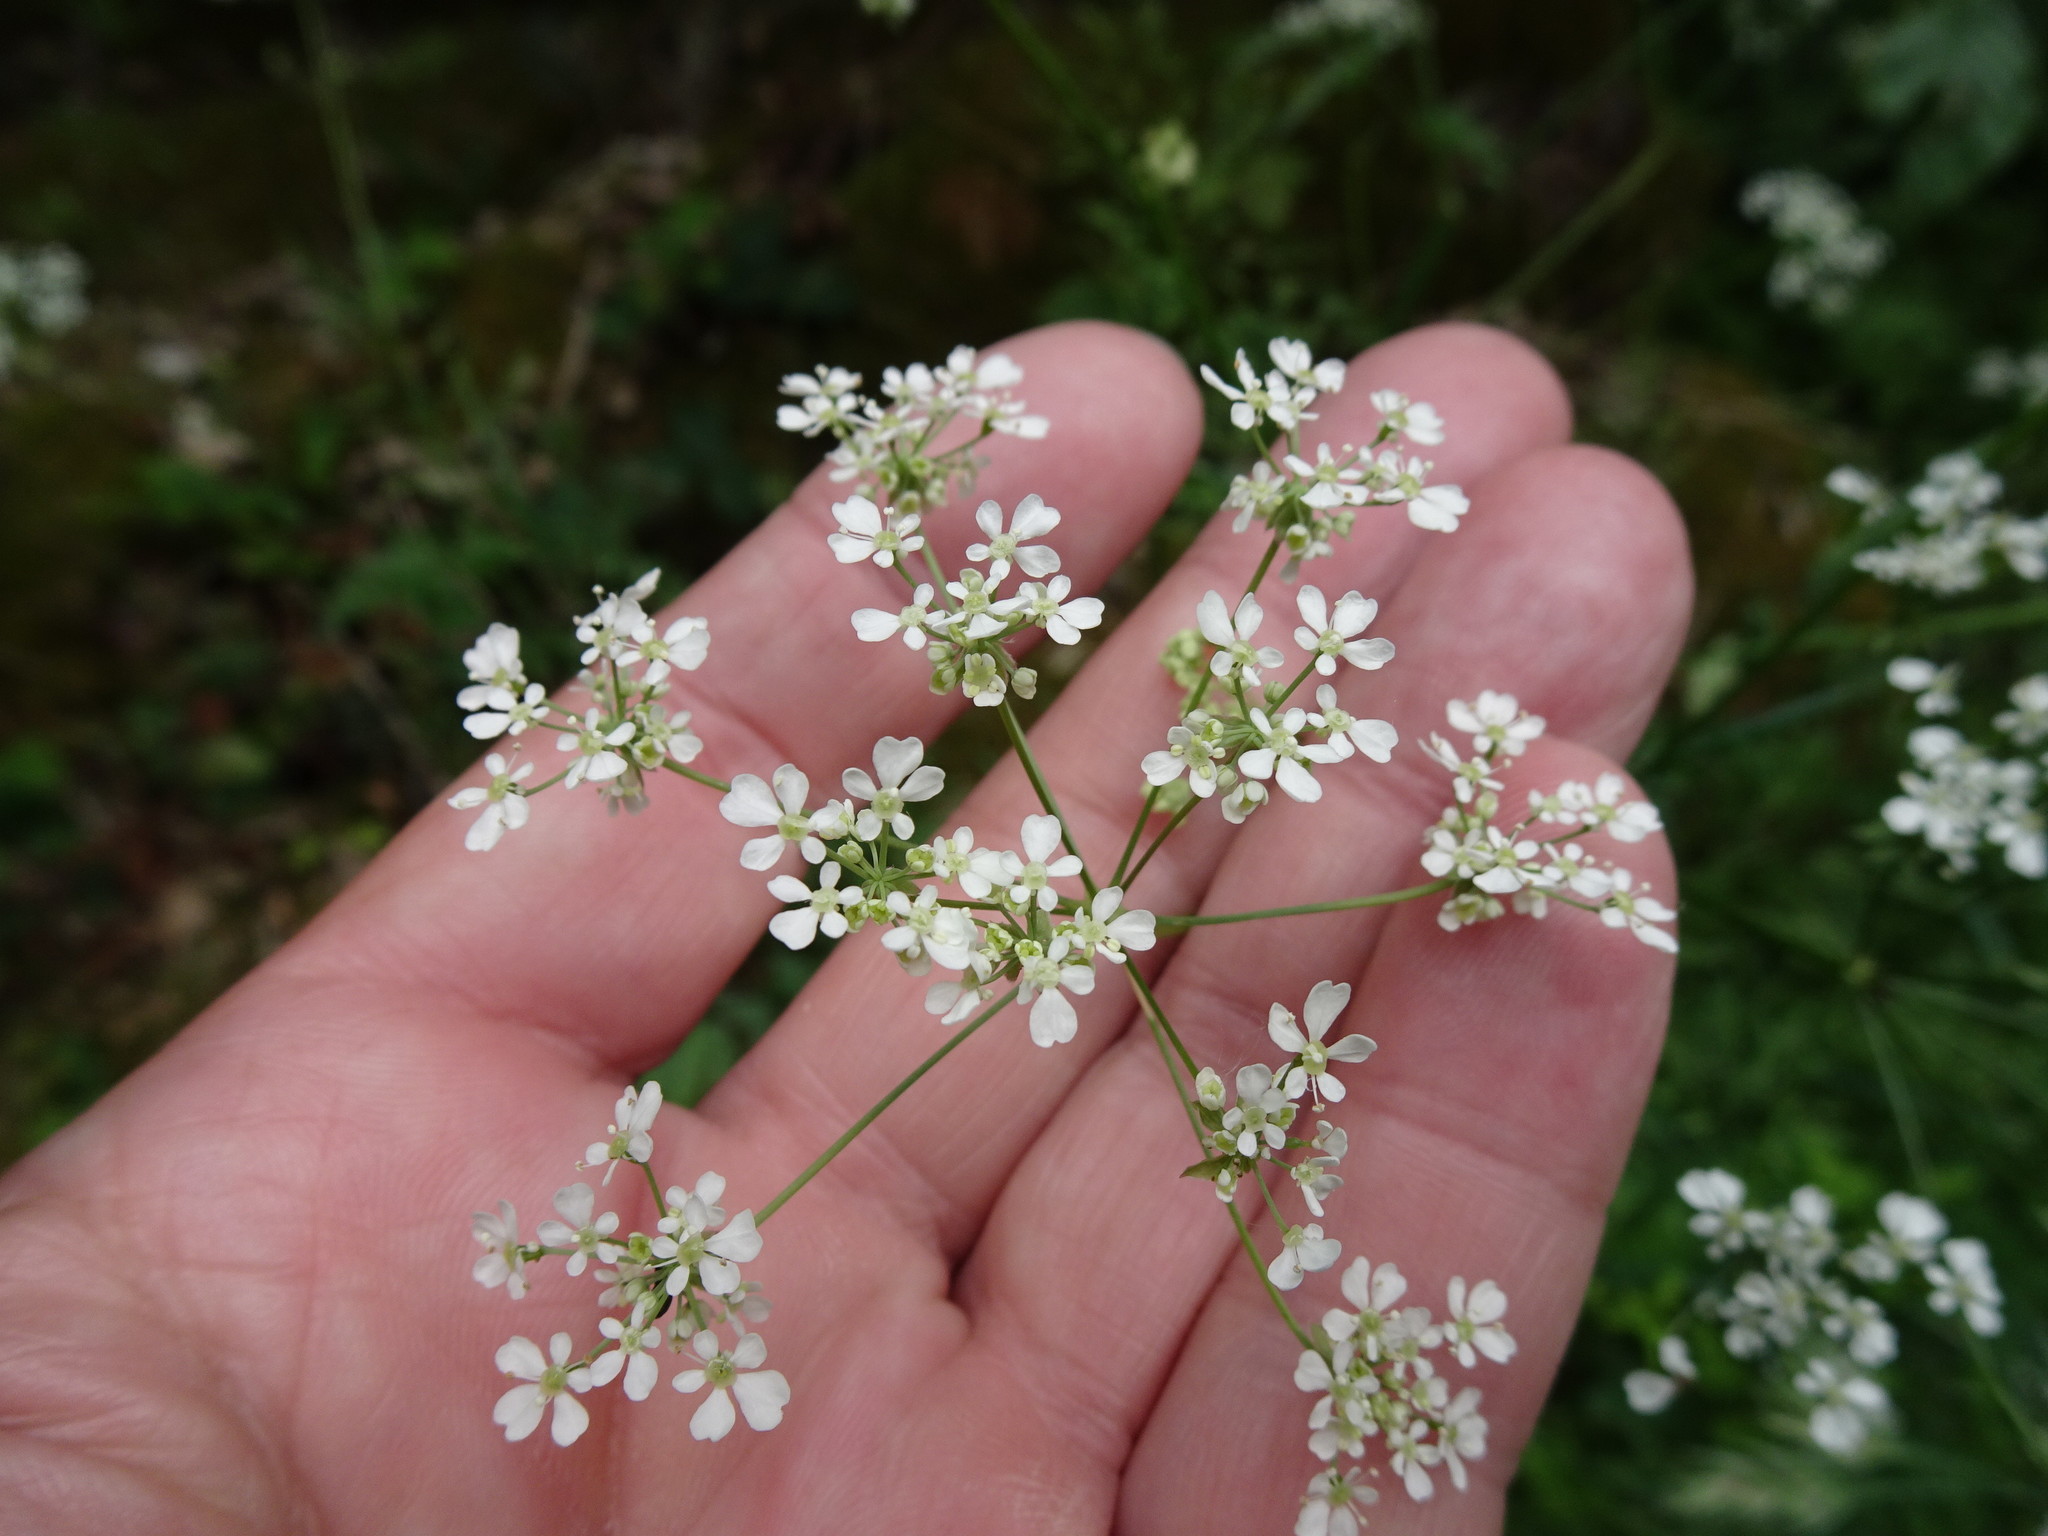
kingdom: Plantae
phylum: Tracheophyta
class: Magnoliopsida
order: Apiales
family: Apiaceae
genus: Anthriscus
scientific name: Anthriscus sylvestris
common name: Cow parsley
